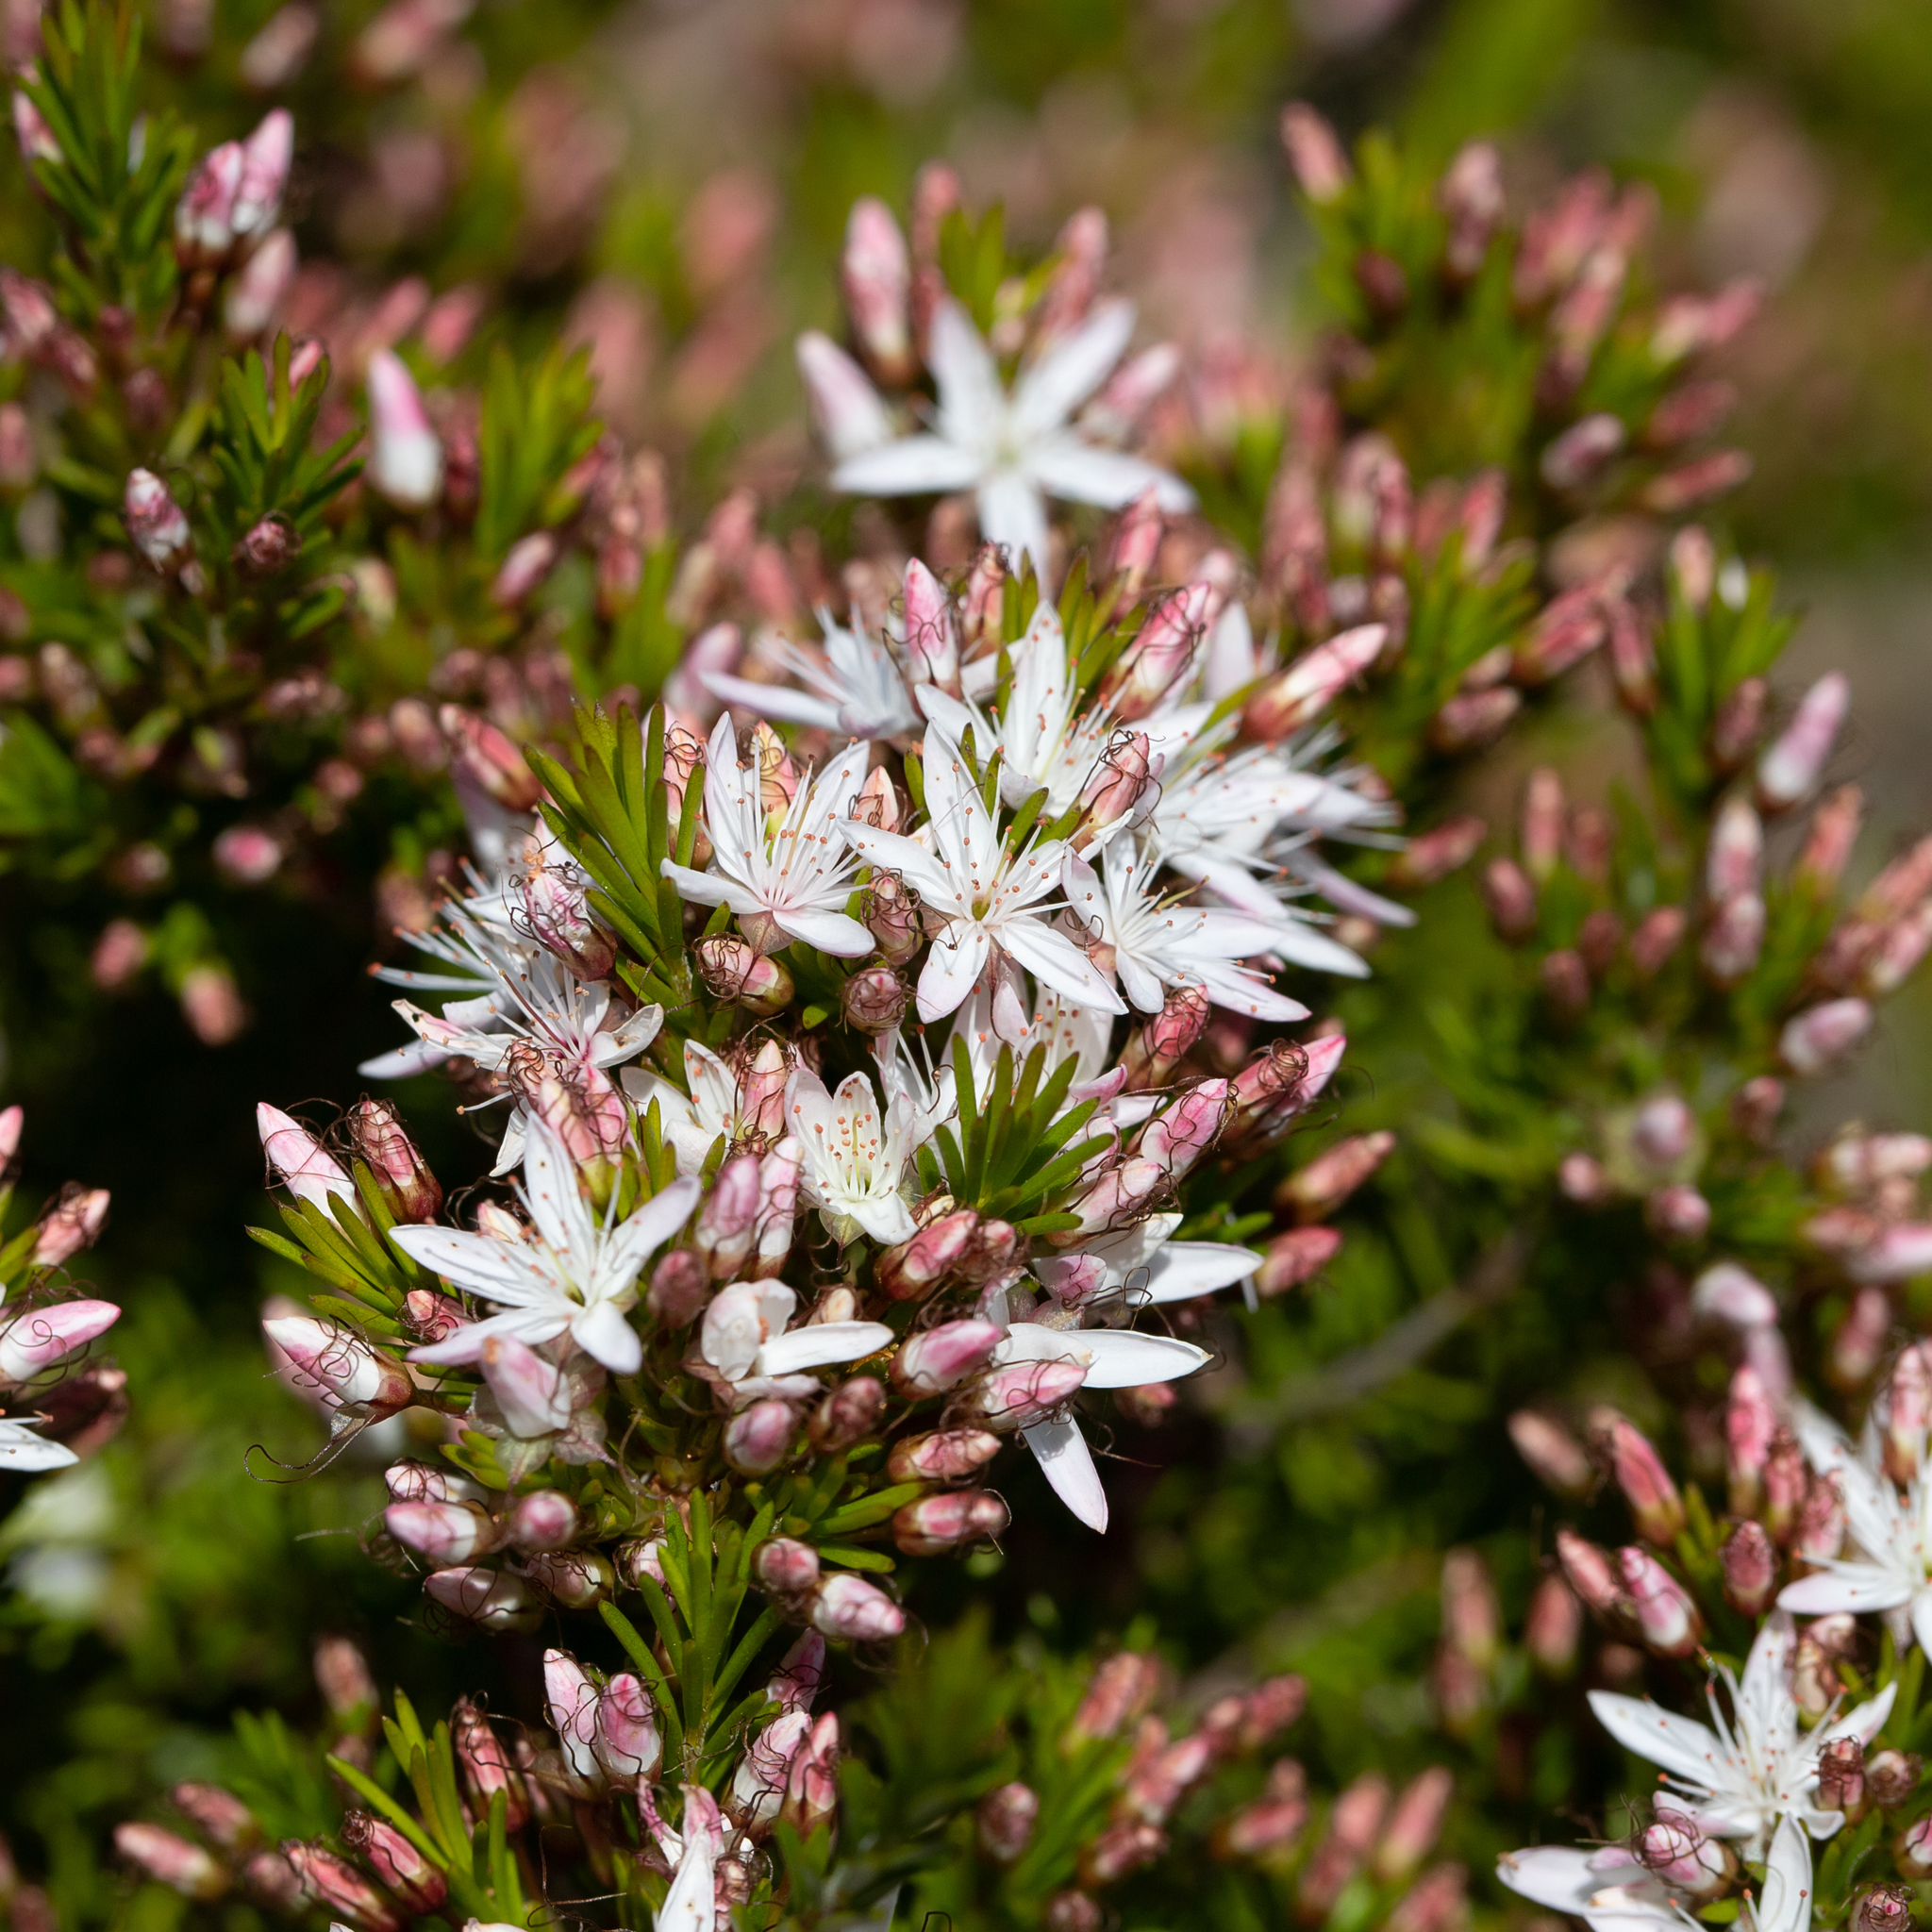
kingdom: Plantae
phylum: Tracheophyta
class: Magnoliopsida
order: Myrtales
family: Myrtaceae
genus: Calytrix
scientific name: Calytrix tetragona
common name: Common fringe myrtle
